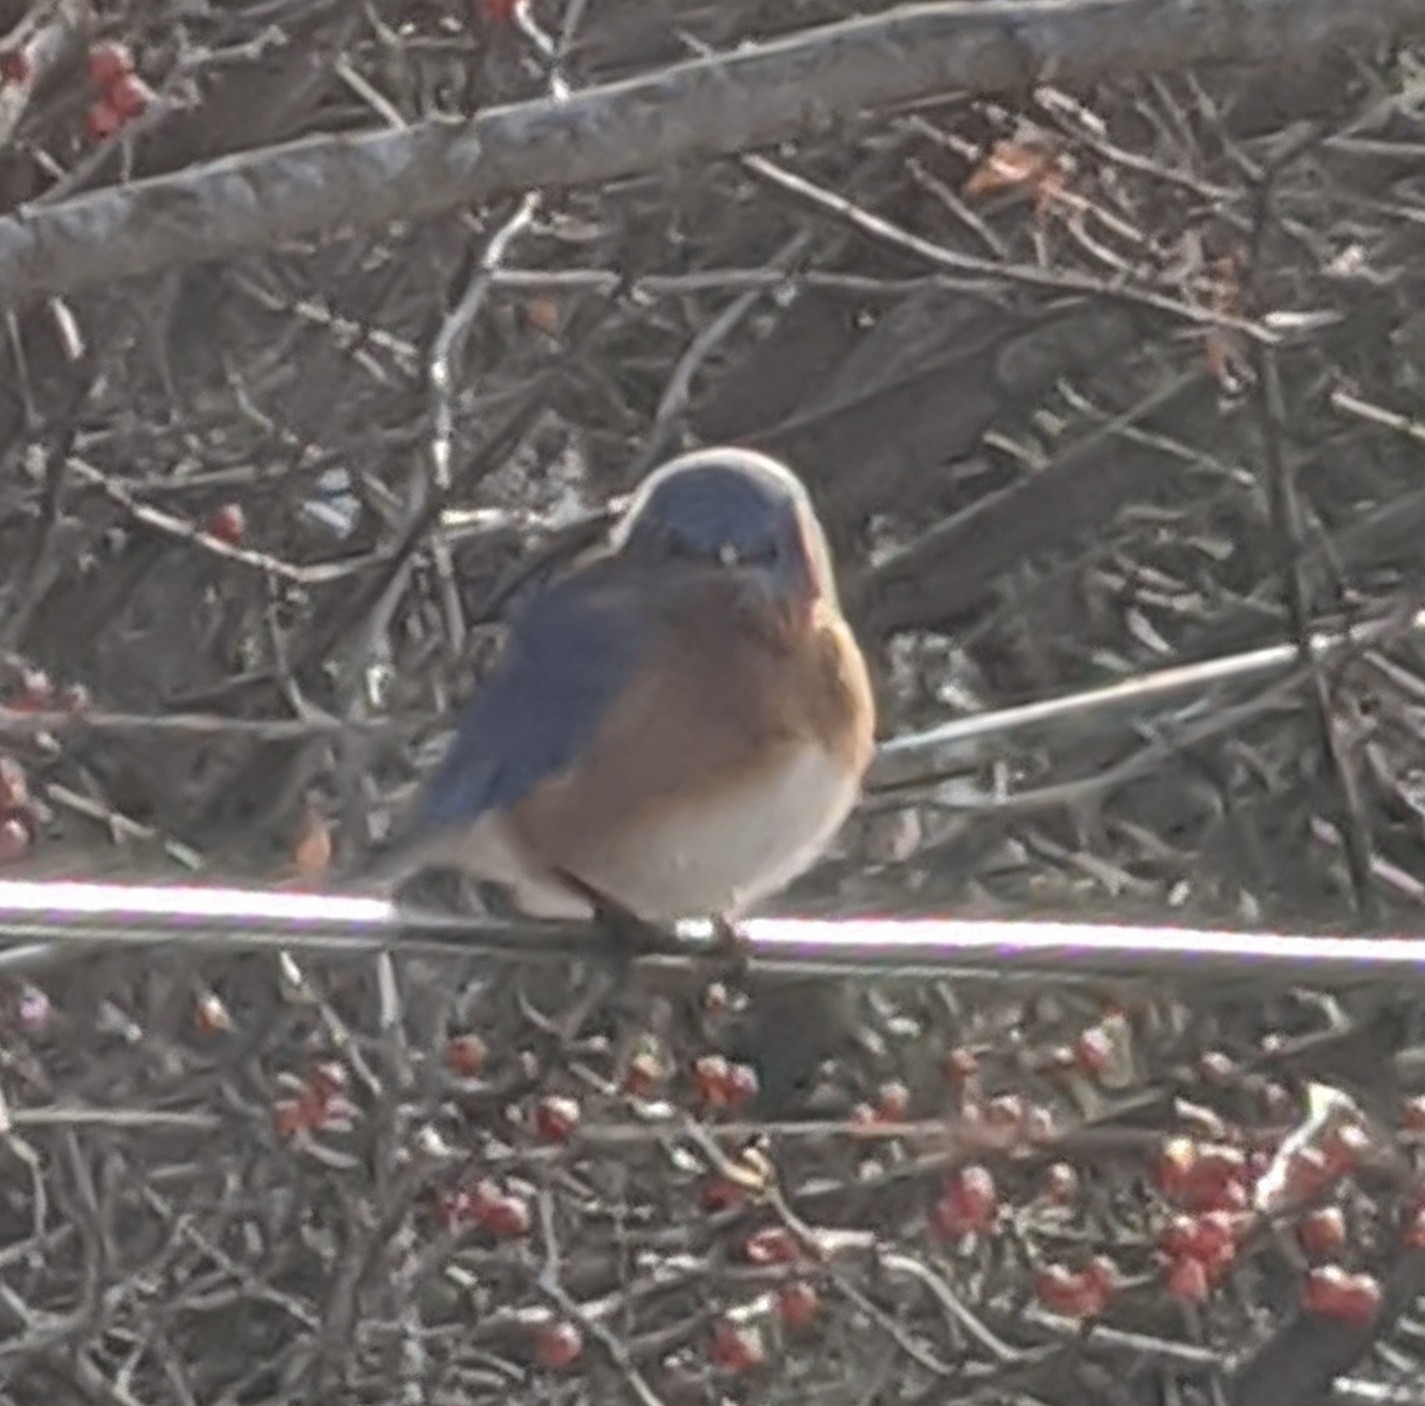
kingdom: Animalia
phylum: Chordata
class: Aves
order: Passeriformes
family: Turdidae
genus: Sialia
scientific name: Sialia sialis
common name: Eastern bluebird
